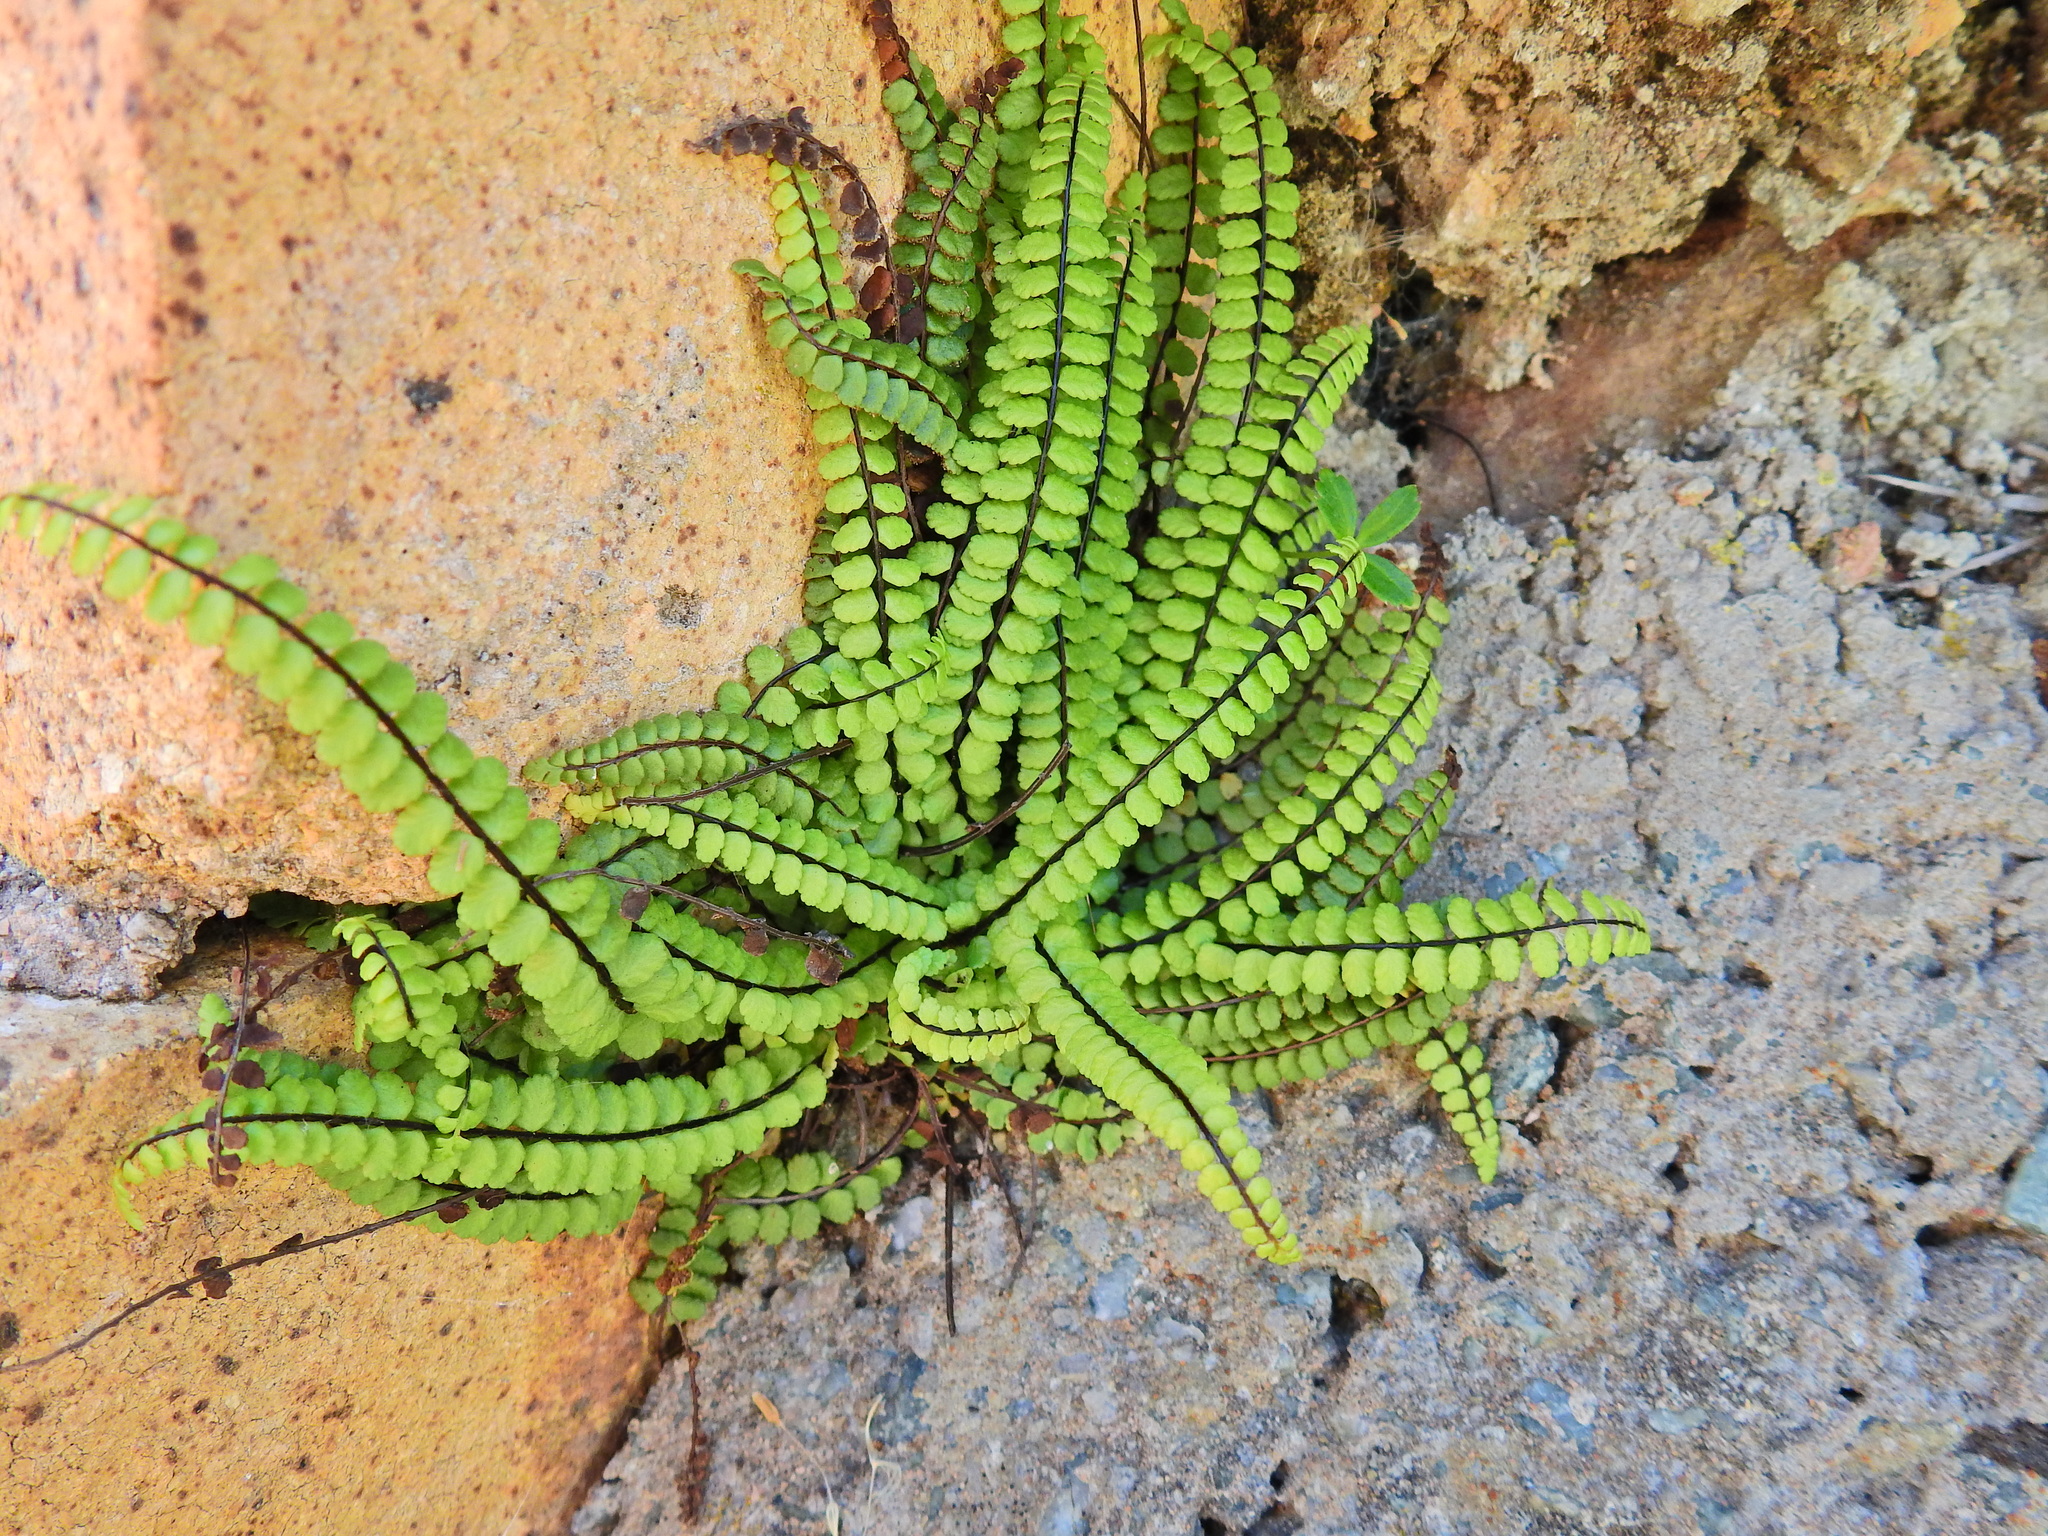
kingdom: Plantae
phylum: Tracheophyta
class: Polypodiopsida
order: Polypodiales
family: Aspleniaceae
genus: Asplenium
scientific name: Asplenium trichomanes
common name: Maidenhair spleenwort
